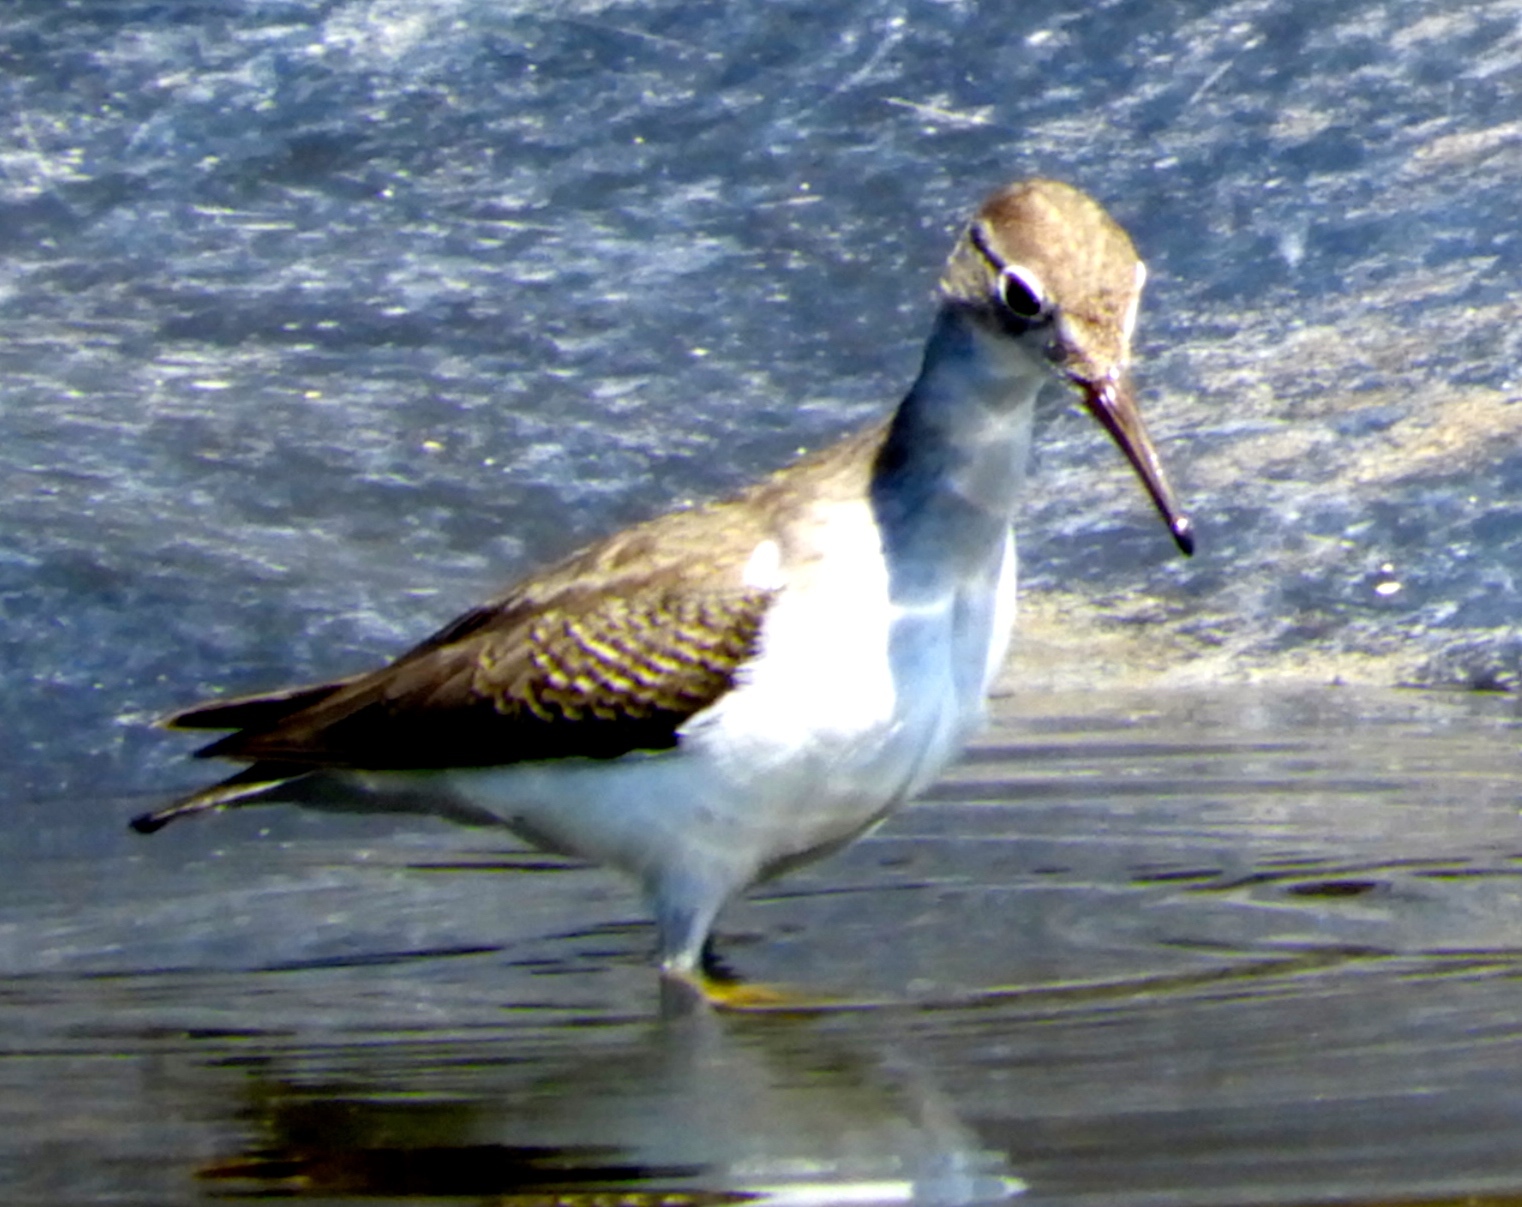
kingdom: Animalia
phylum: Chordata
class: Aves
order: Charadriiformes
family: Scolopacidae
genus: Actitis
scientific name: Actitis macularius
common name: Spotted sandpiper
